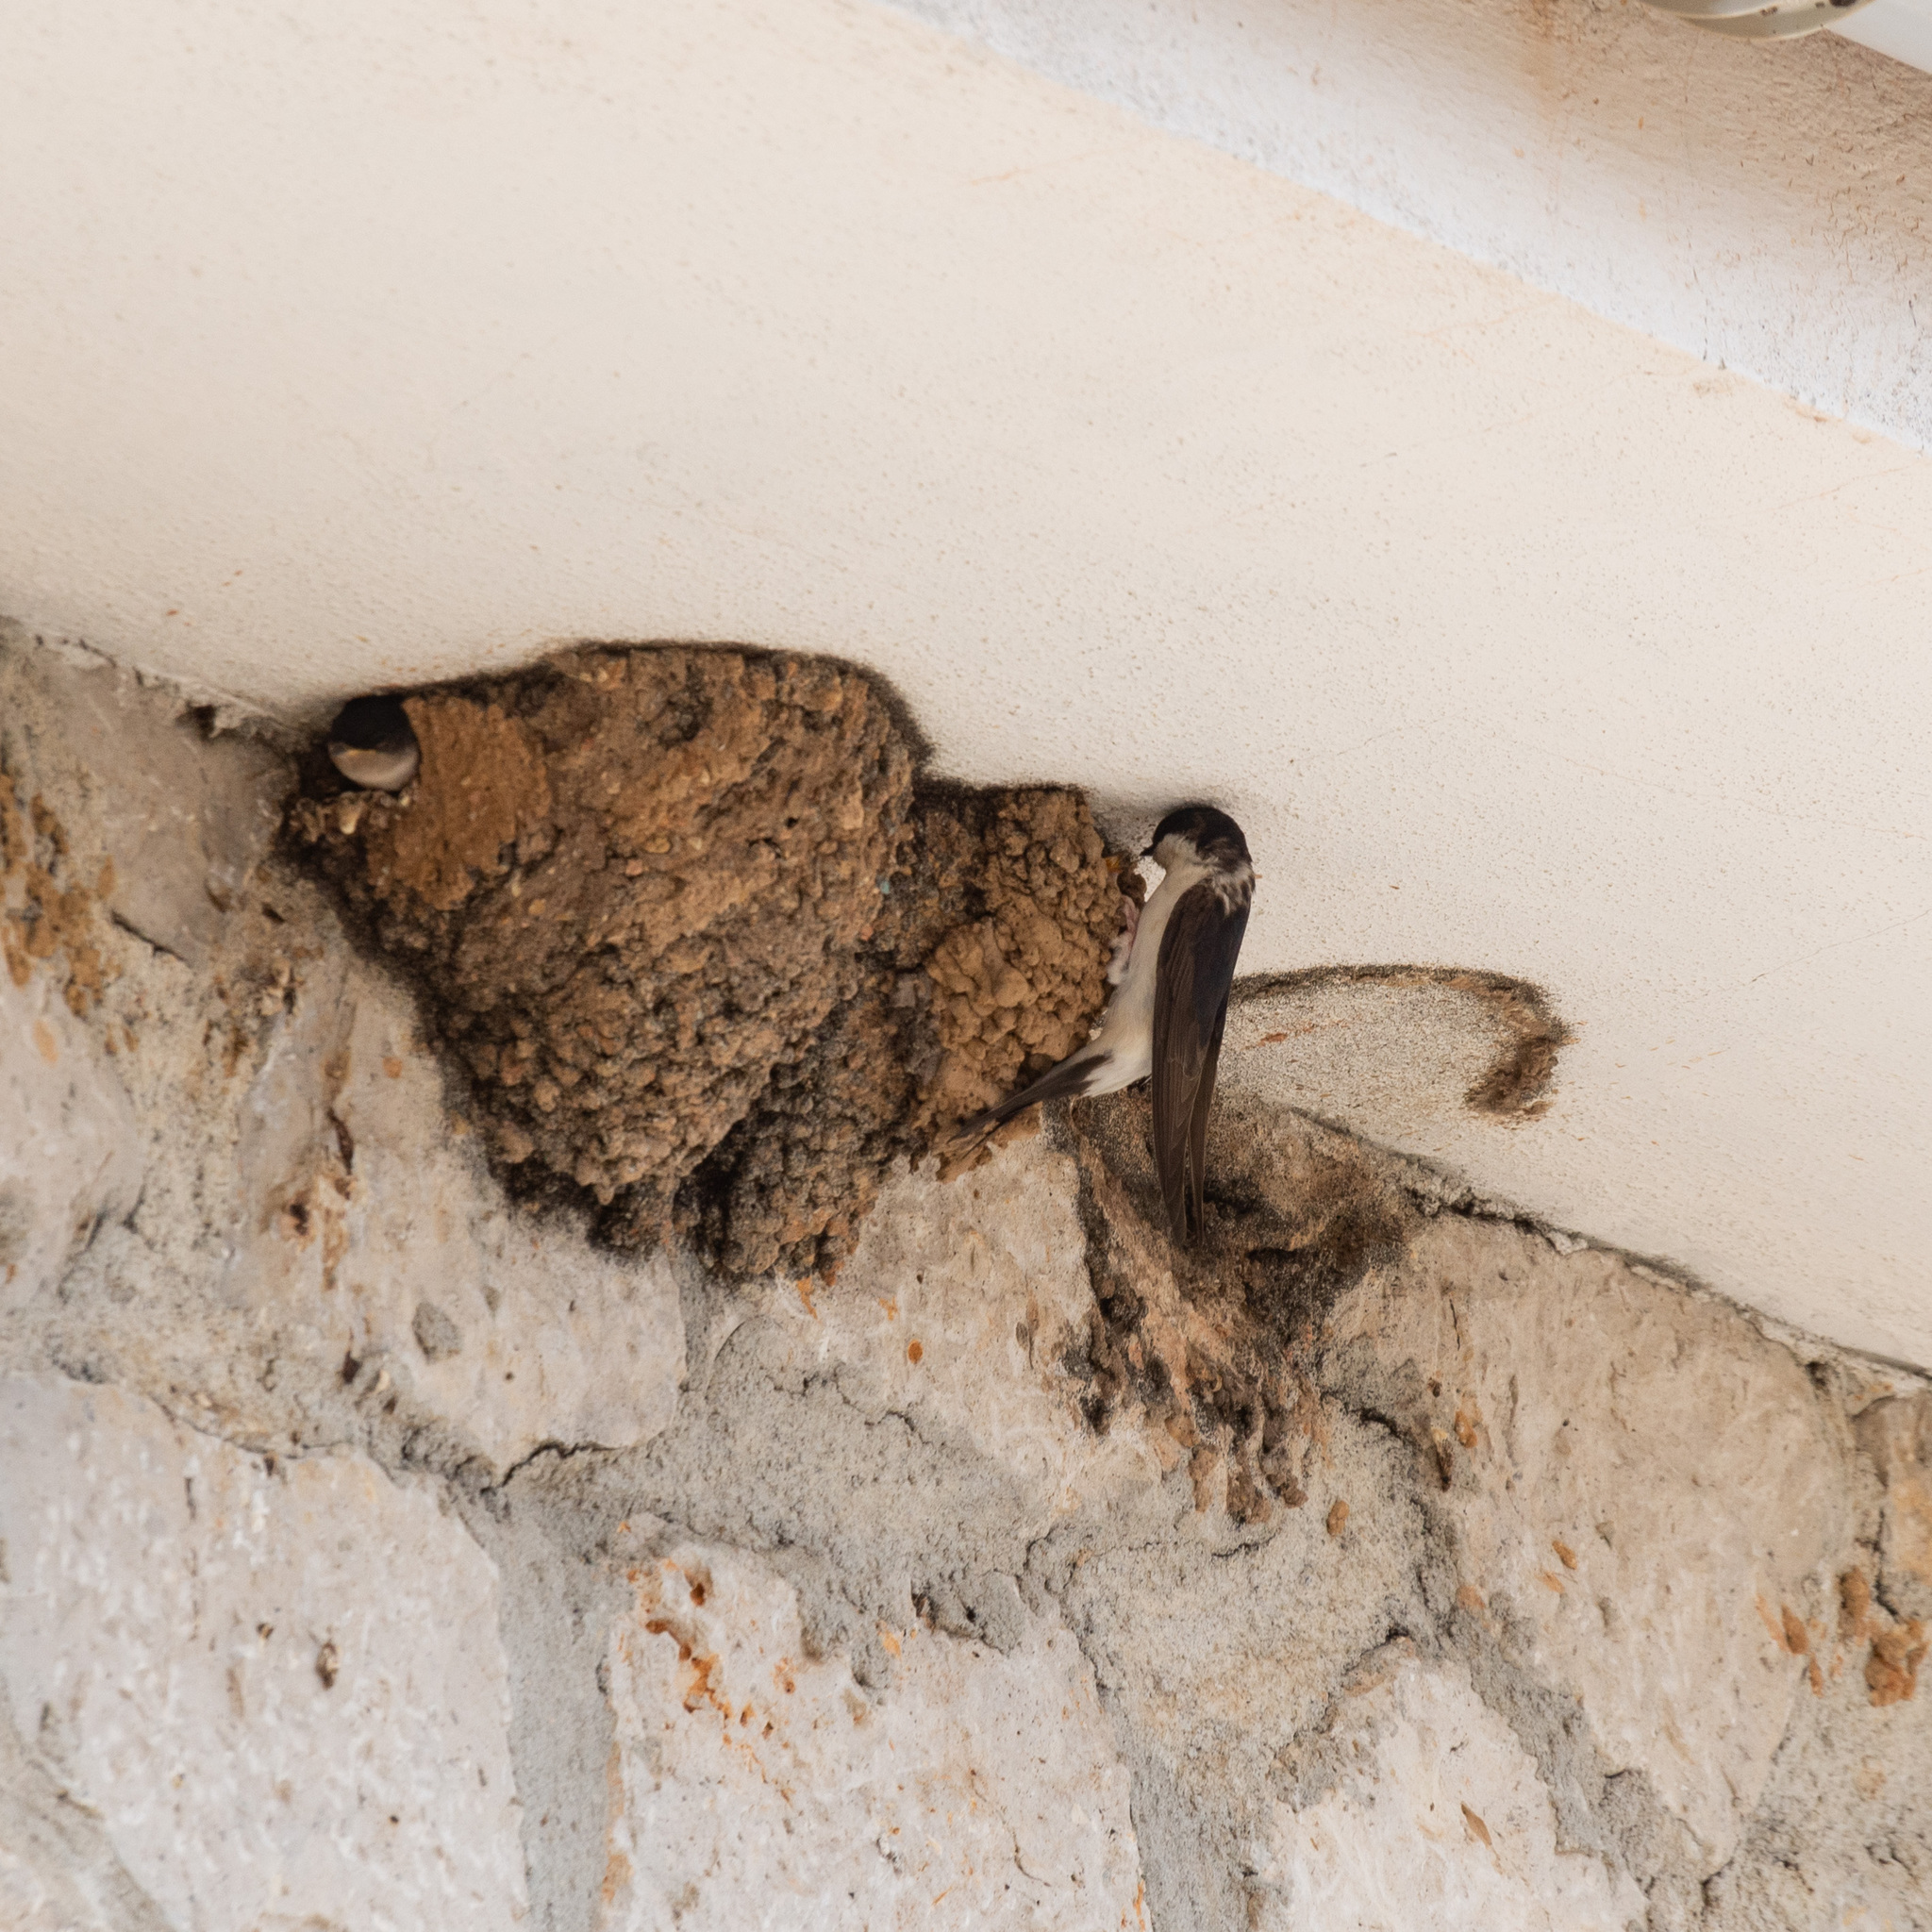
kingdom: Animalia
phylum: Chordata
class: Aves
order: Passeriformes
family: Hirundinidae
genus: Delichon
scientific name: Delichon urbicum
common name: Common house martin
